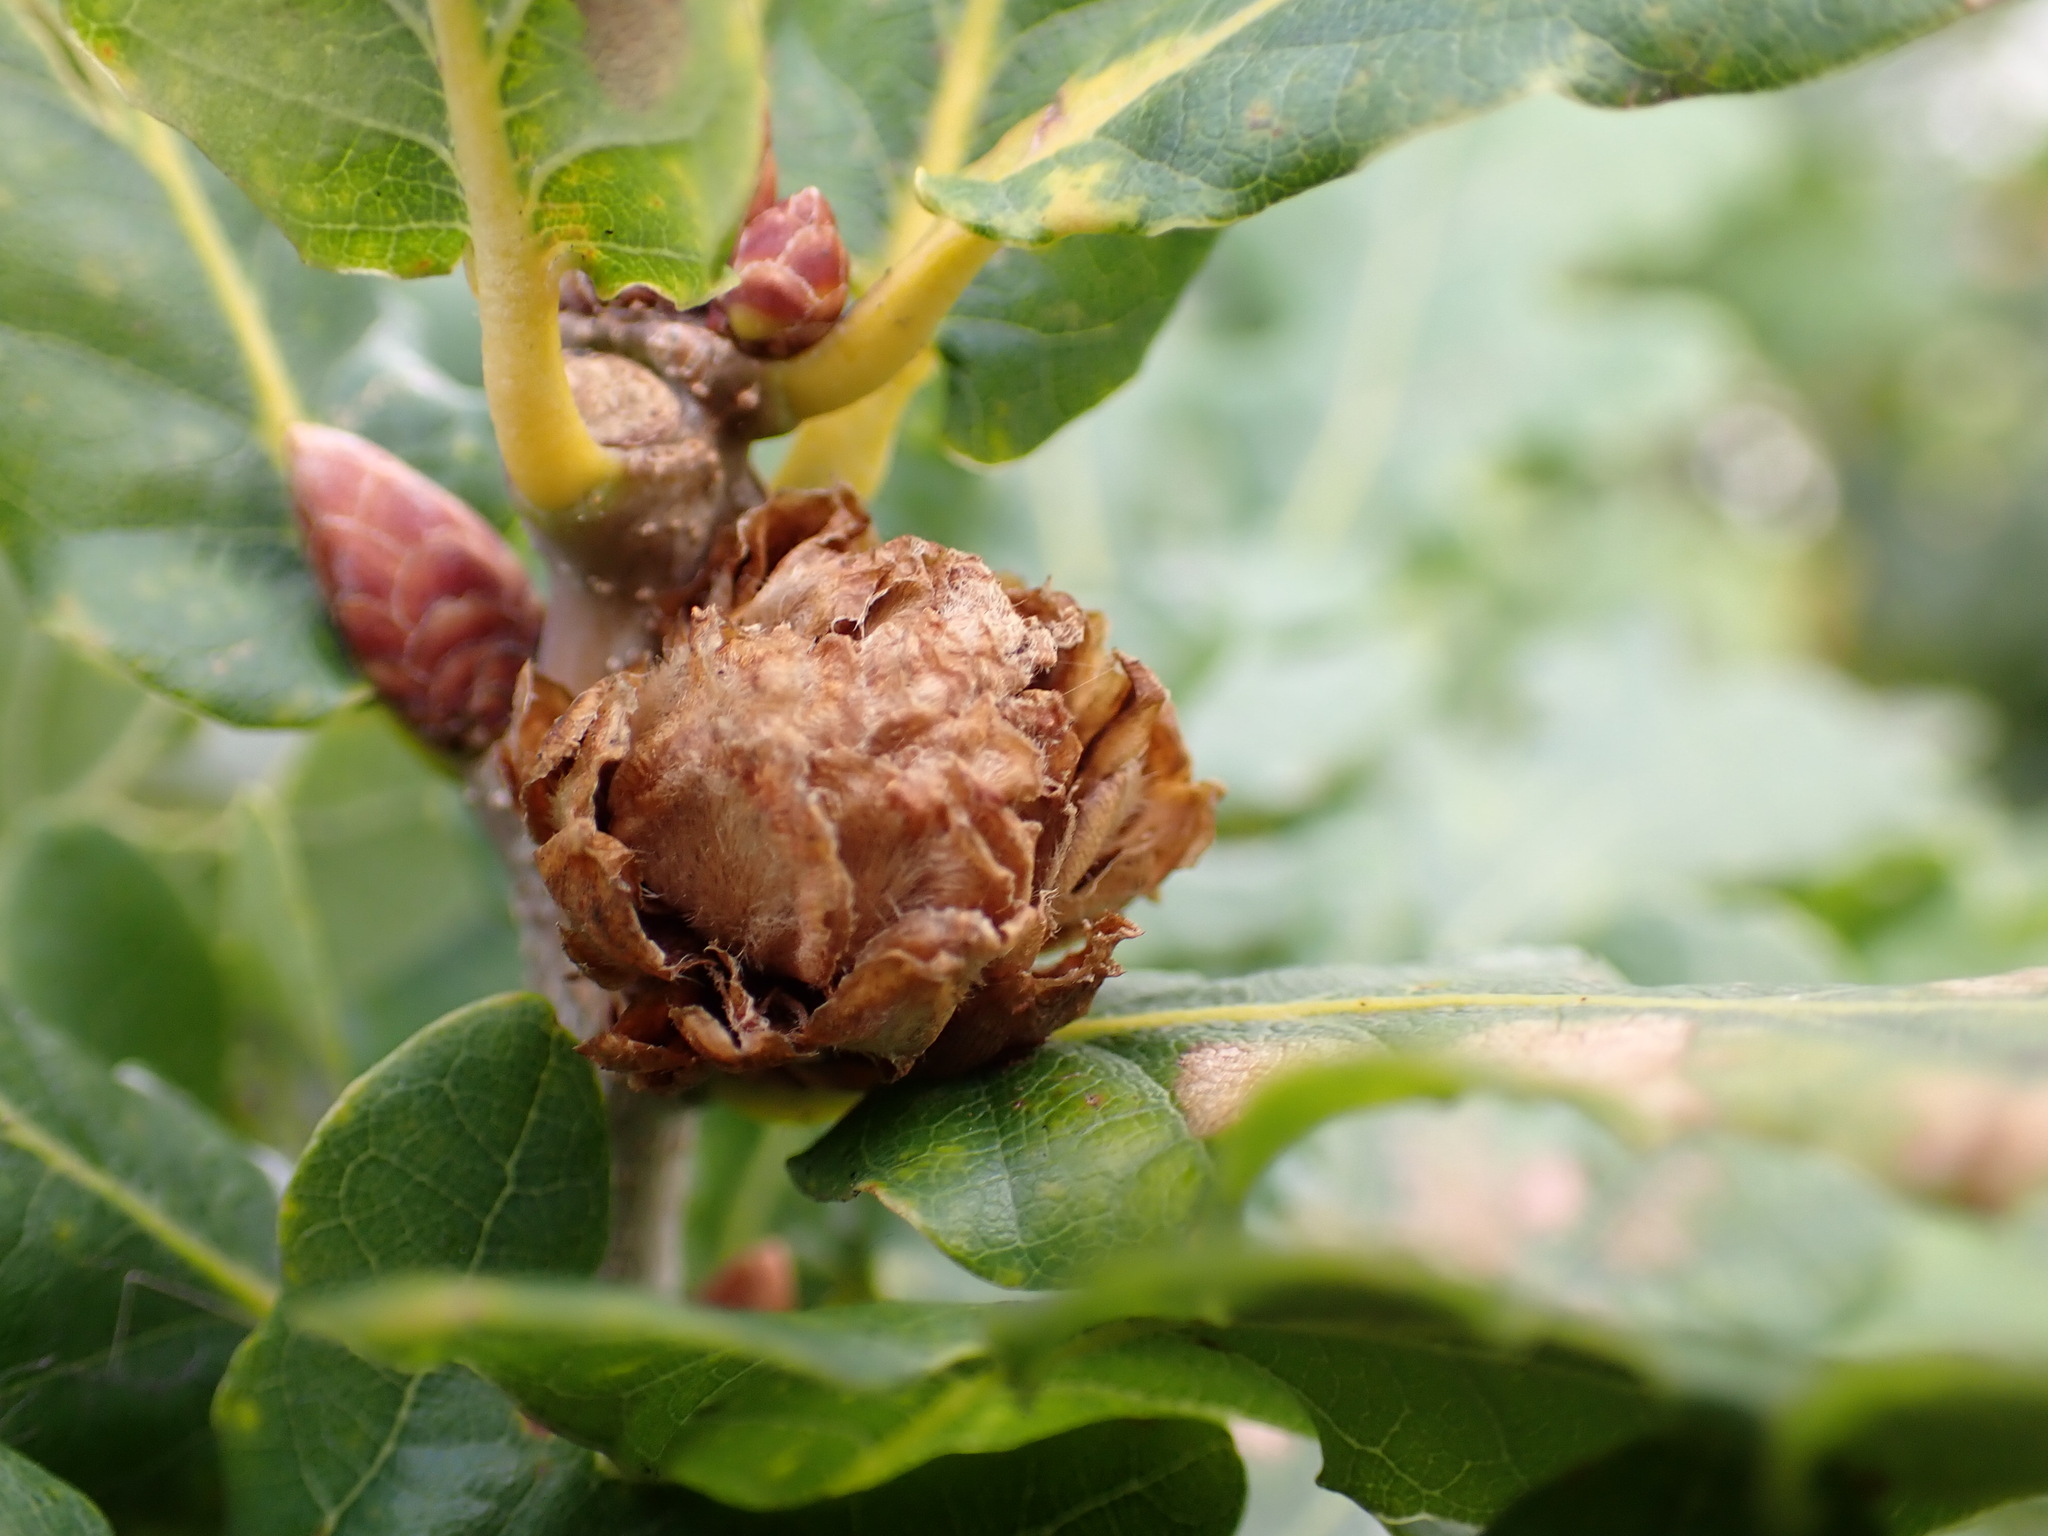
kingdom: Animalia
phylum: Arthropoda
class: Insecta
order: Hymenoptera
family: Cynipidae
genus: Andricus
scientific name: Andricus foecundatrix
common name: Artichoke gall
